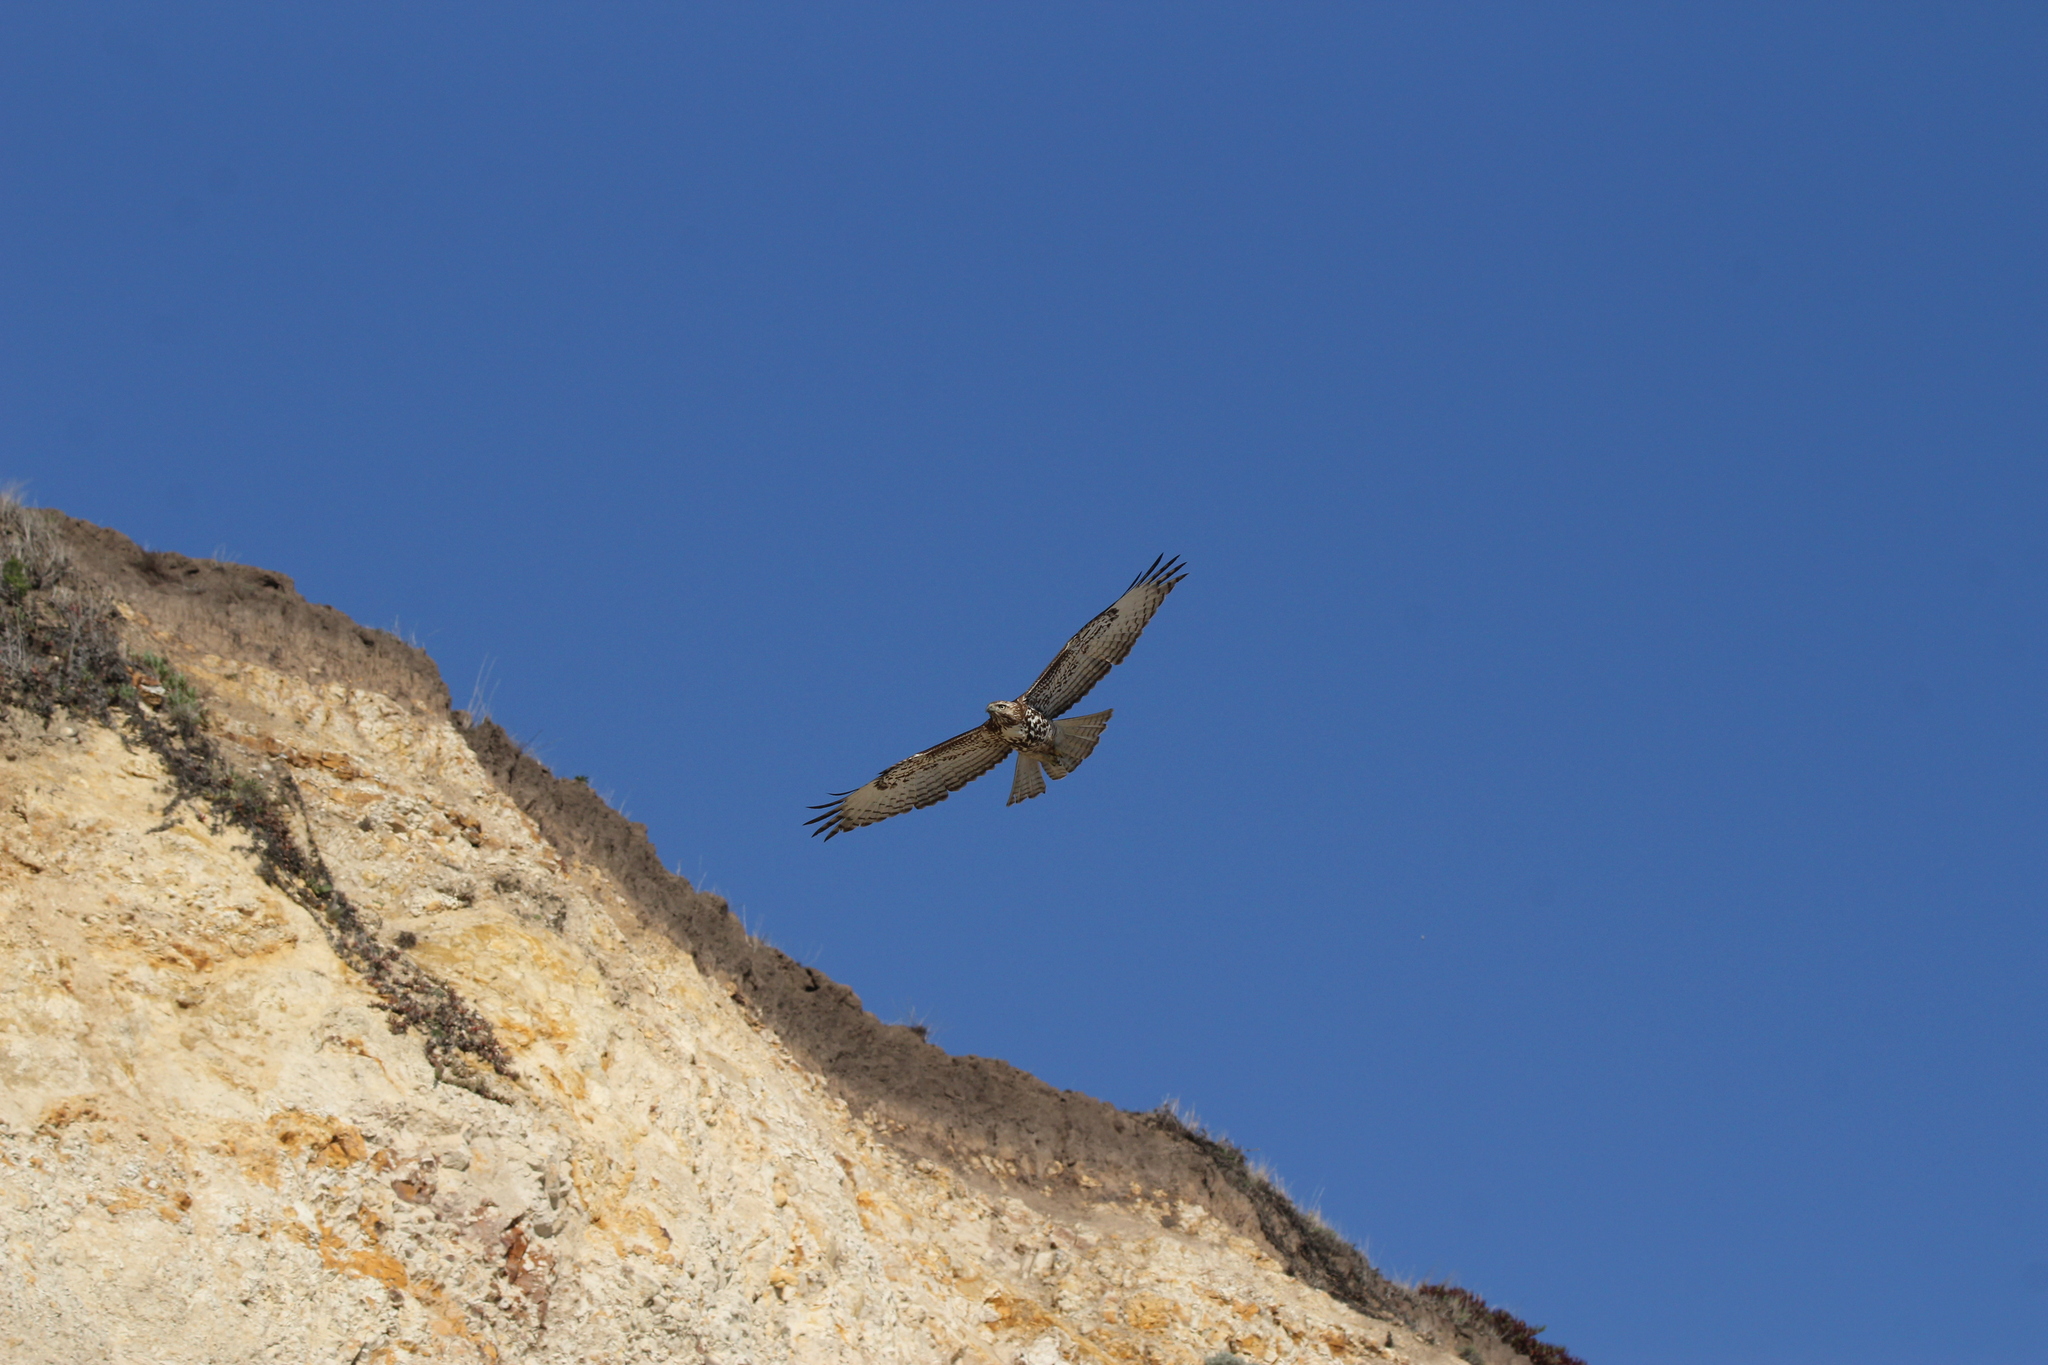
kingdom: Animalia
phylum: Chordata
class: Aves
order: Accipitriformes
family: Accipitridae
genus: Buteo
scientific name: Buteo jamaicensis
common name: Red-tailed hawk
